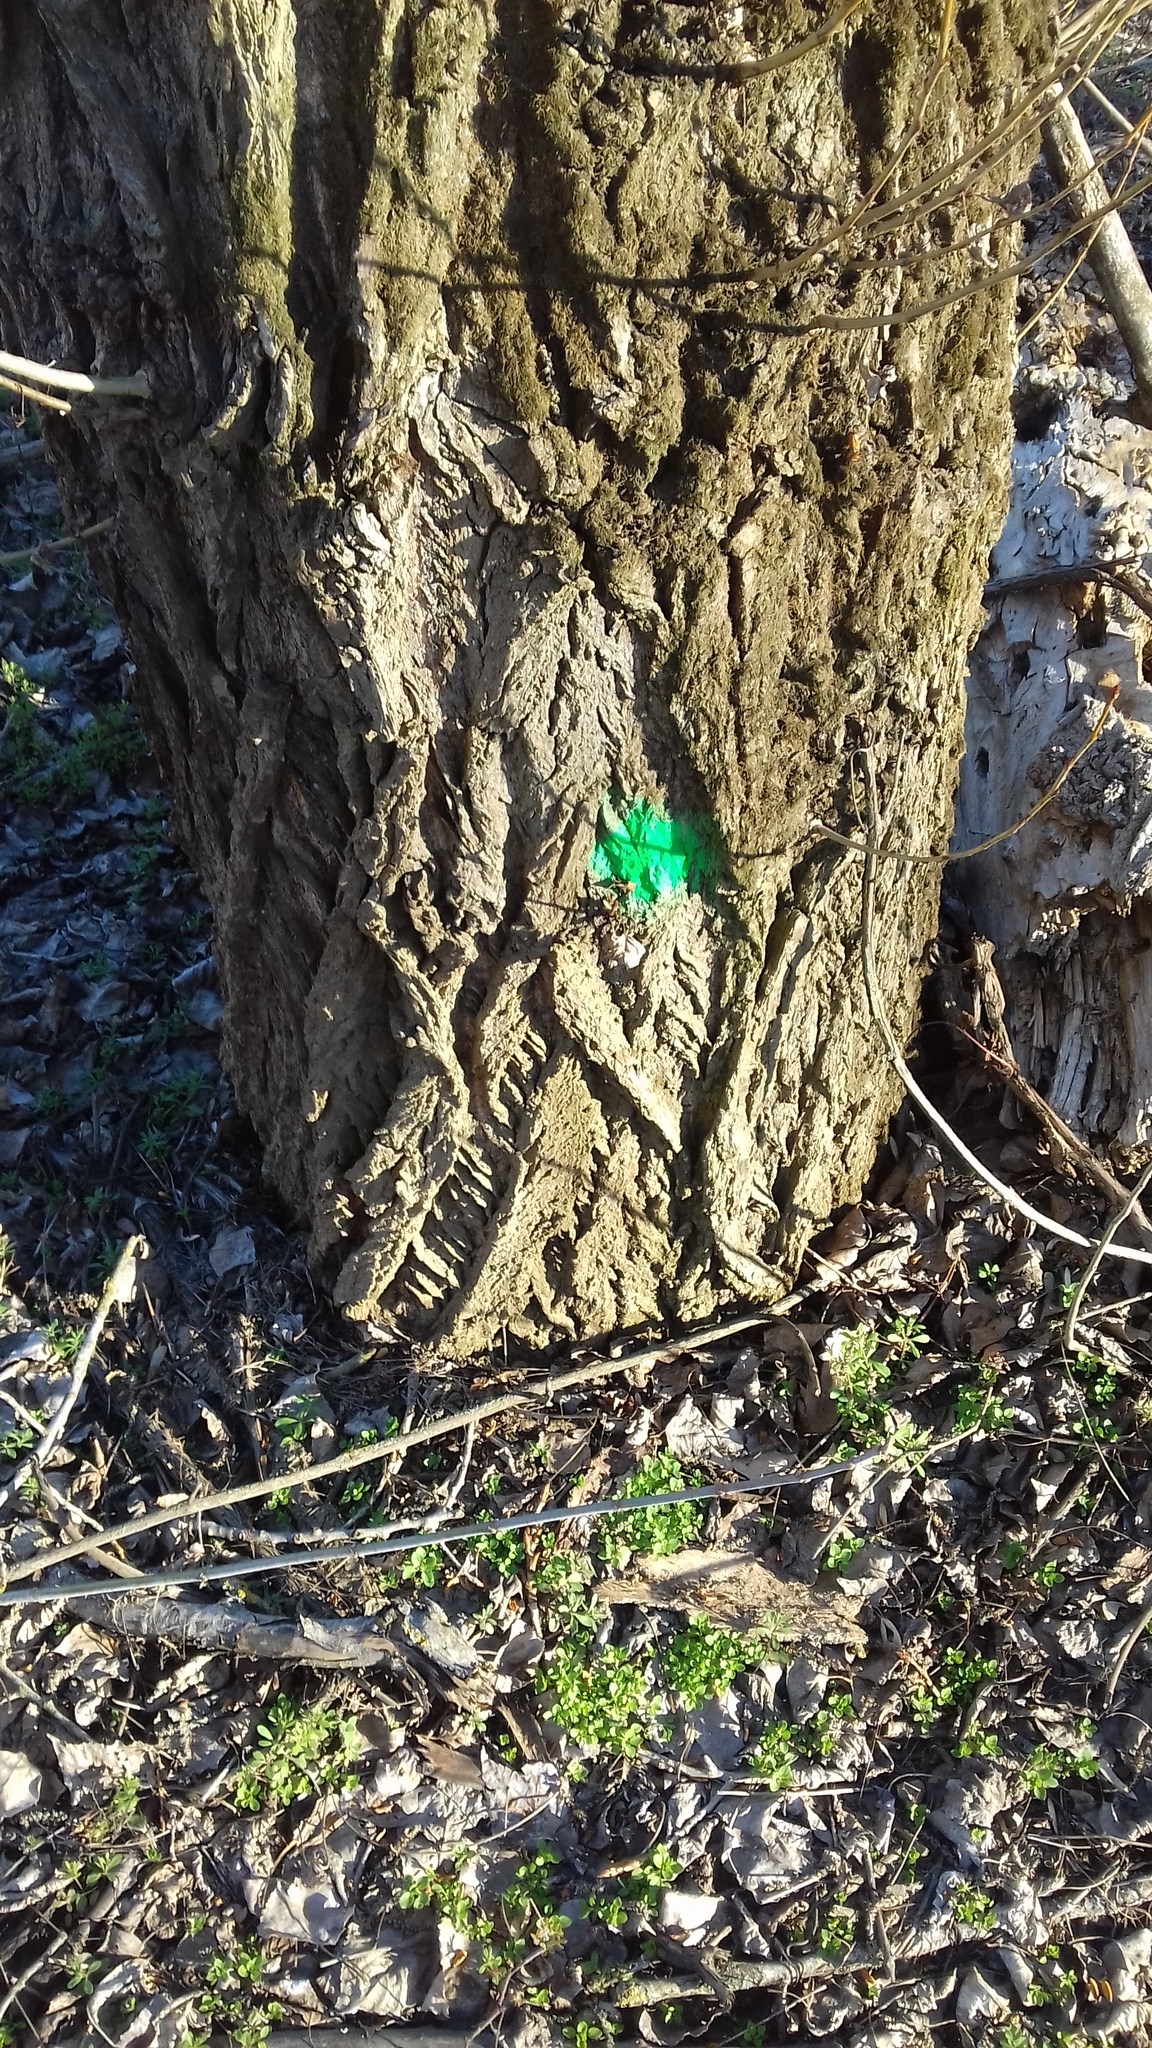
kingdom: Plantae
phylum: Tracheophyta
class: Magnoliopsida
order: Fabales
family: Fabaceae
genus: Robinia
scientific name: Robinia pseudoacacia
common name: Black locust
